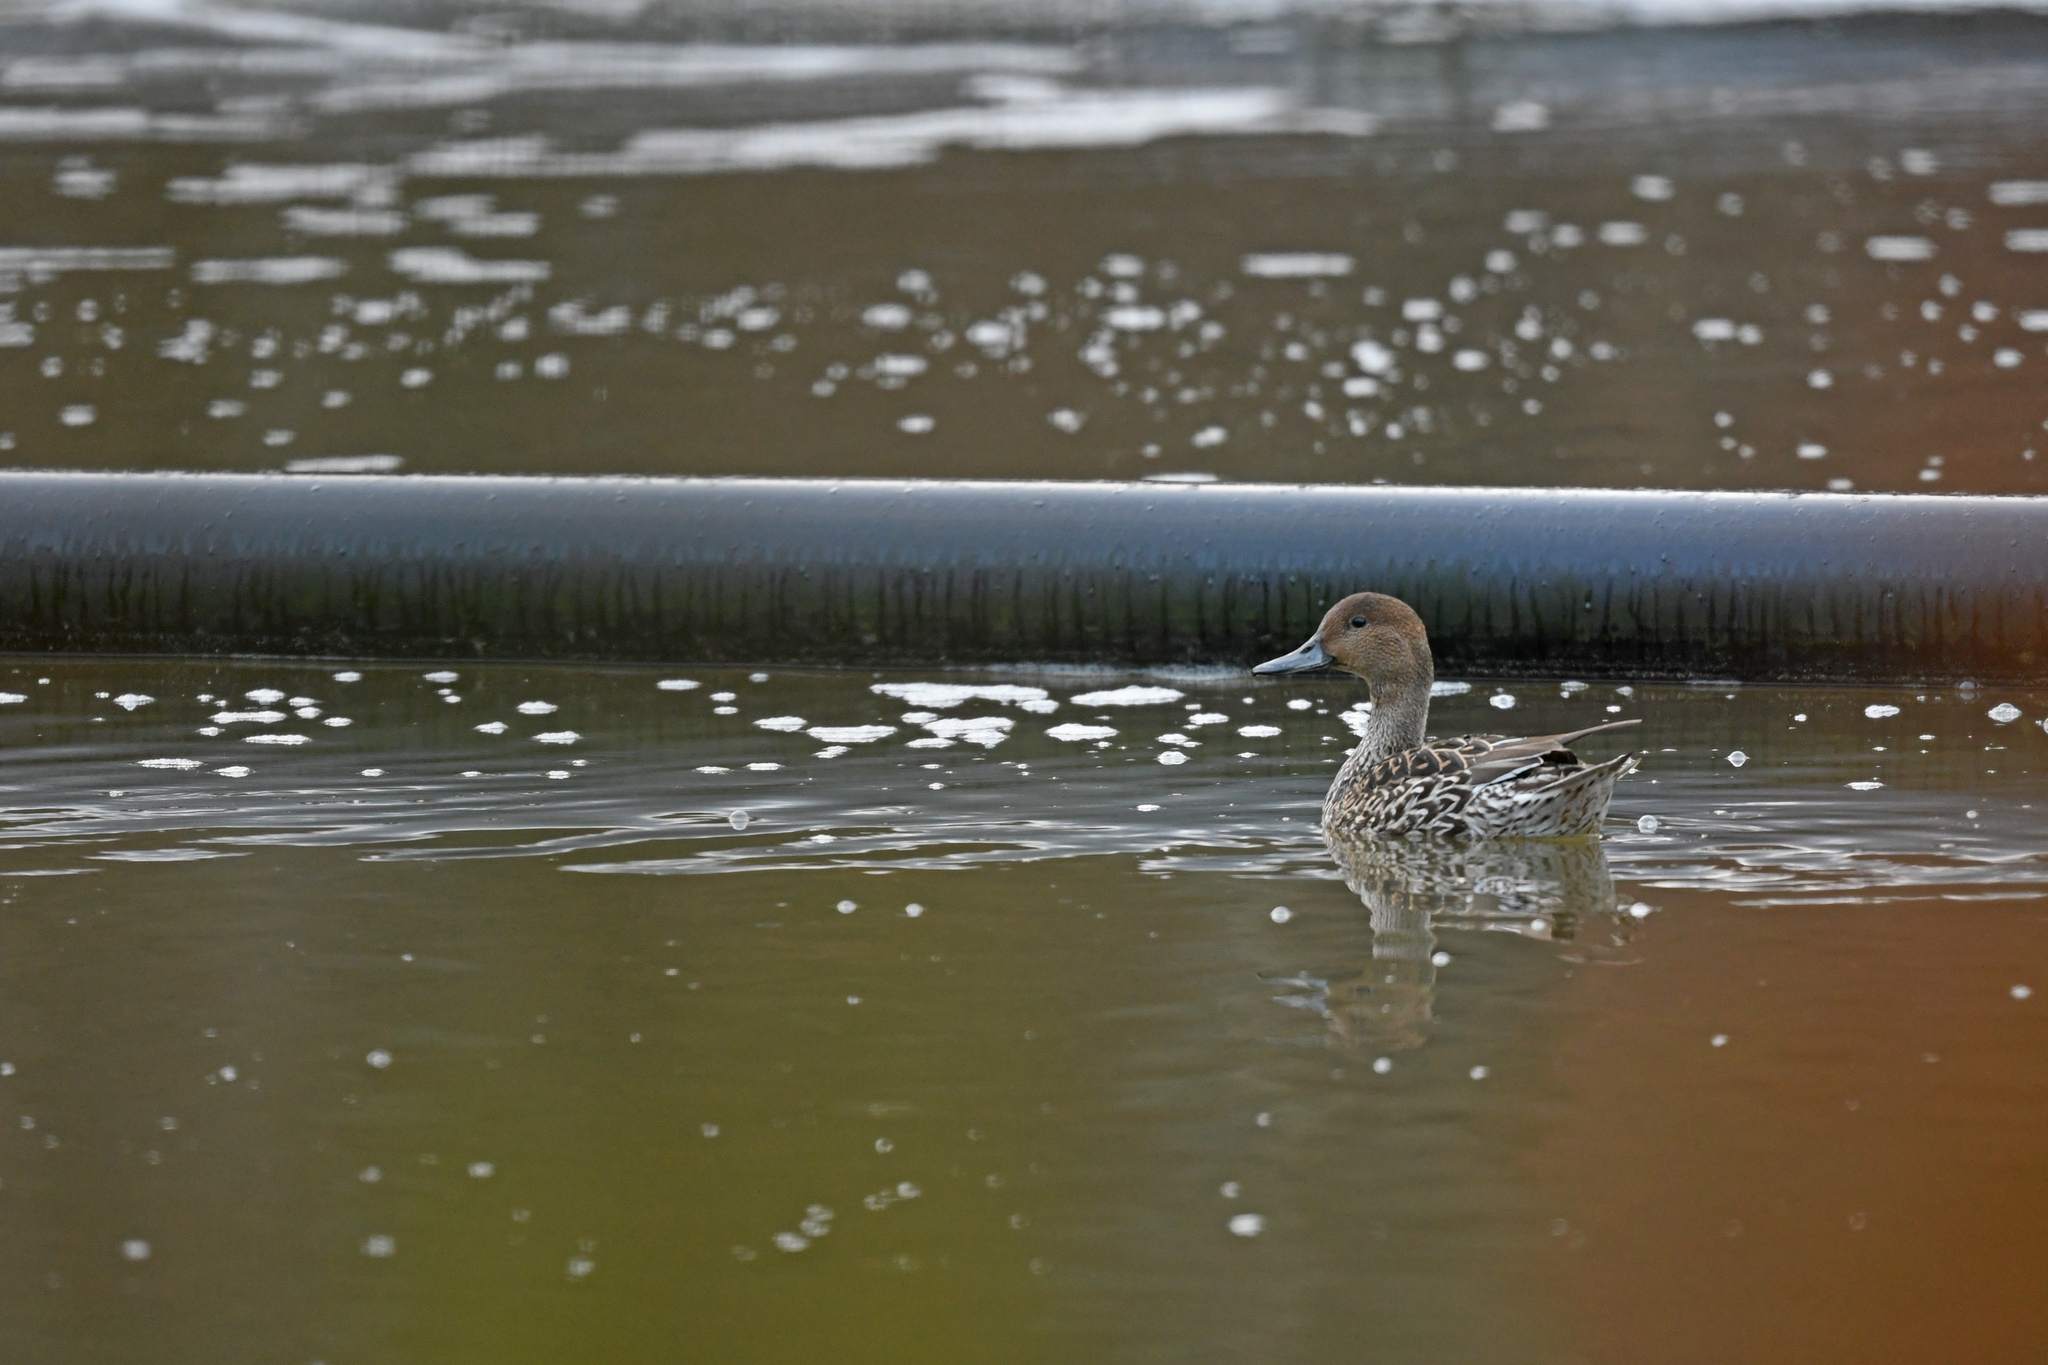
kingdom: Animalia
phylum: Chordata
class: Aves
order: Anseriformes
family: Anatidae
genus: Anas
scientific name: Anas acuta
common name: Northern pintail
